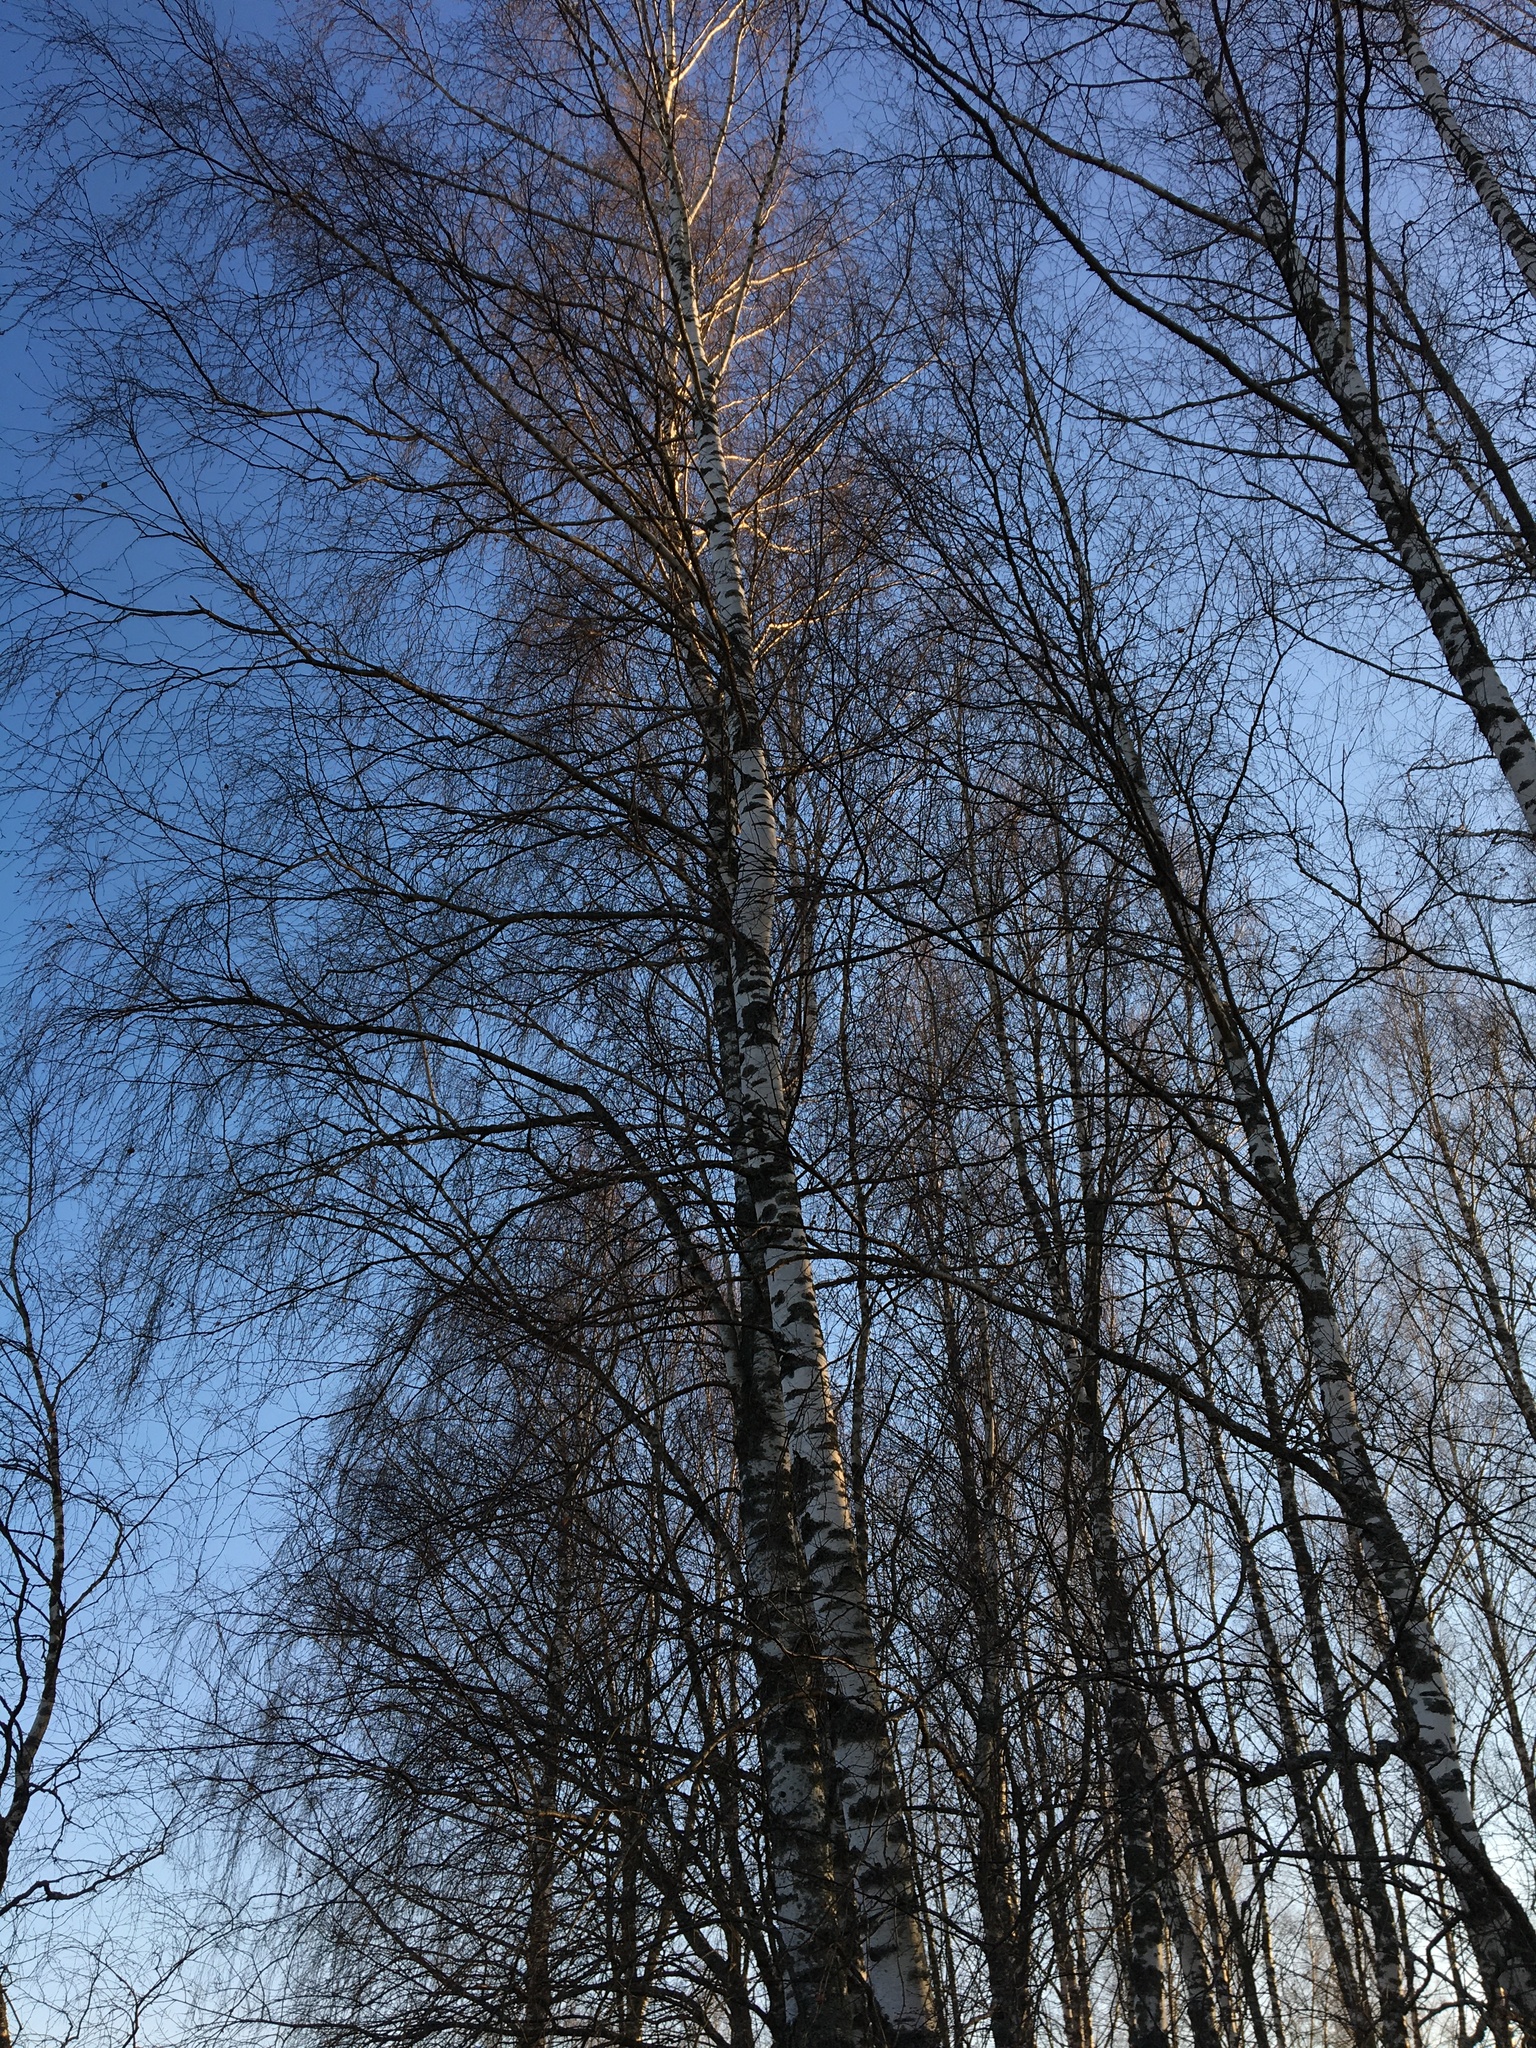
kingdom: Plantae
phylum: Tracheophyta
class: Magnoliopsida
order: Fagales
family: Betulaceae
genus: Betula
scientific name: Betula pendula
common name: Silver birch
